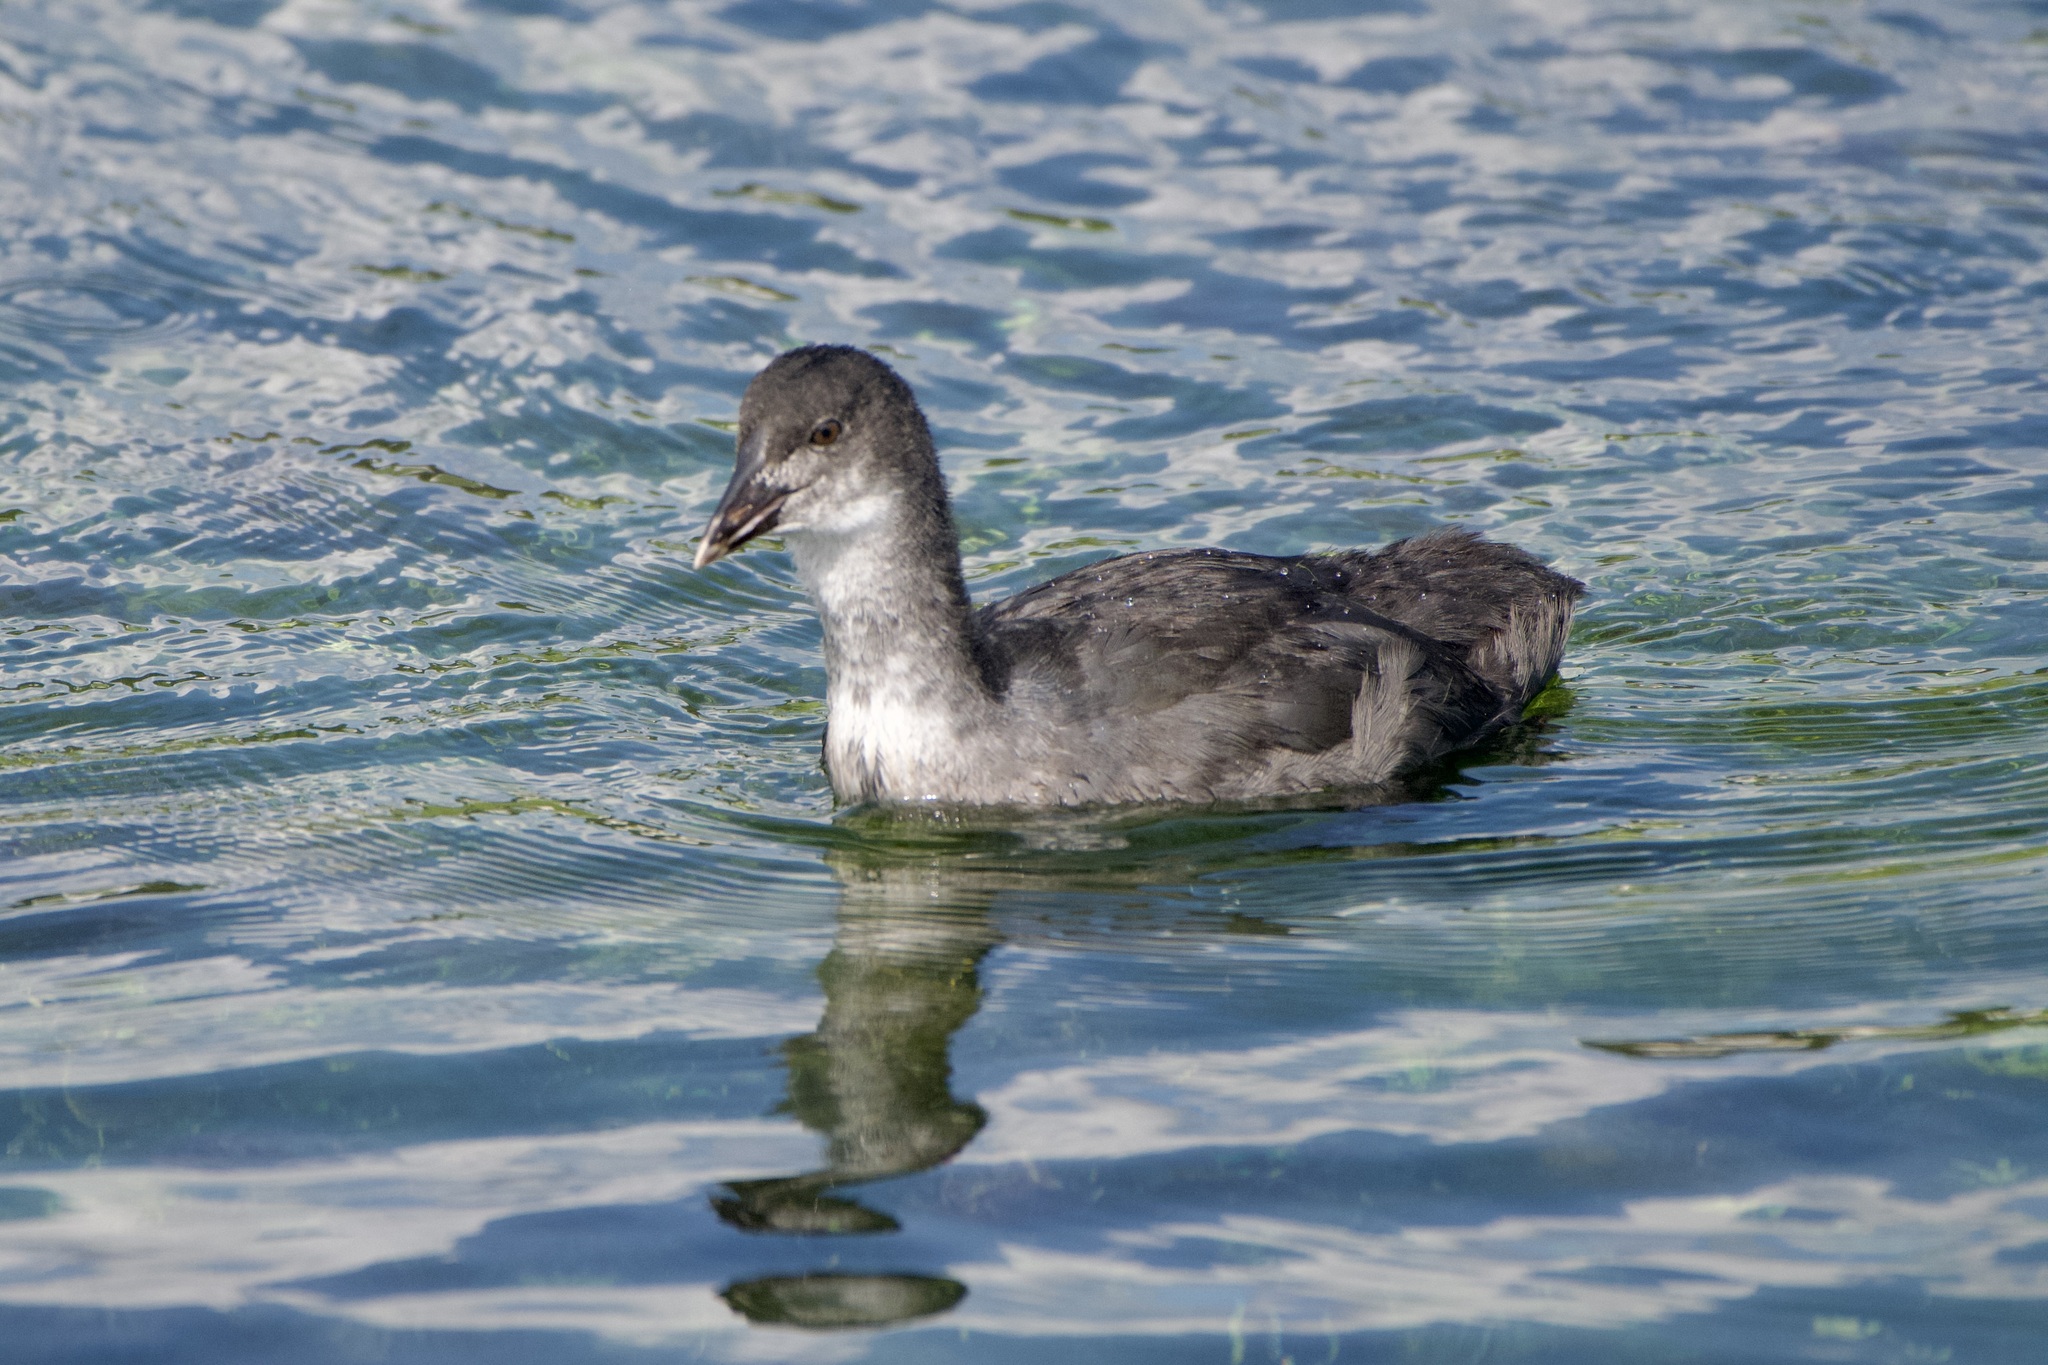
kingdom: Animalia
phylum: Chordata
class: Aves
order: Gruiformes
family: Rallidae
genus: Fulica
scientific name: Fulica atra
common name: Eurasian coot
